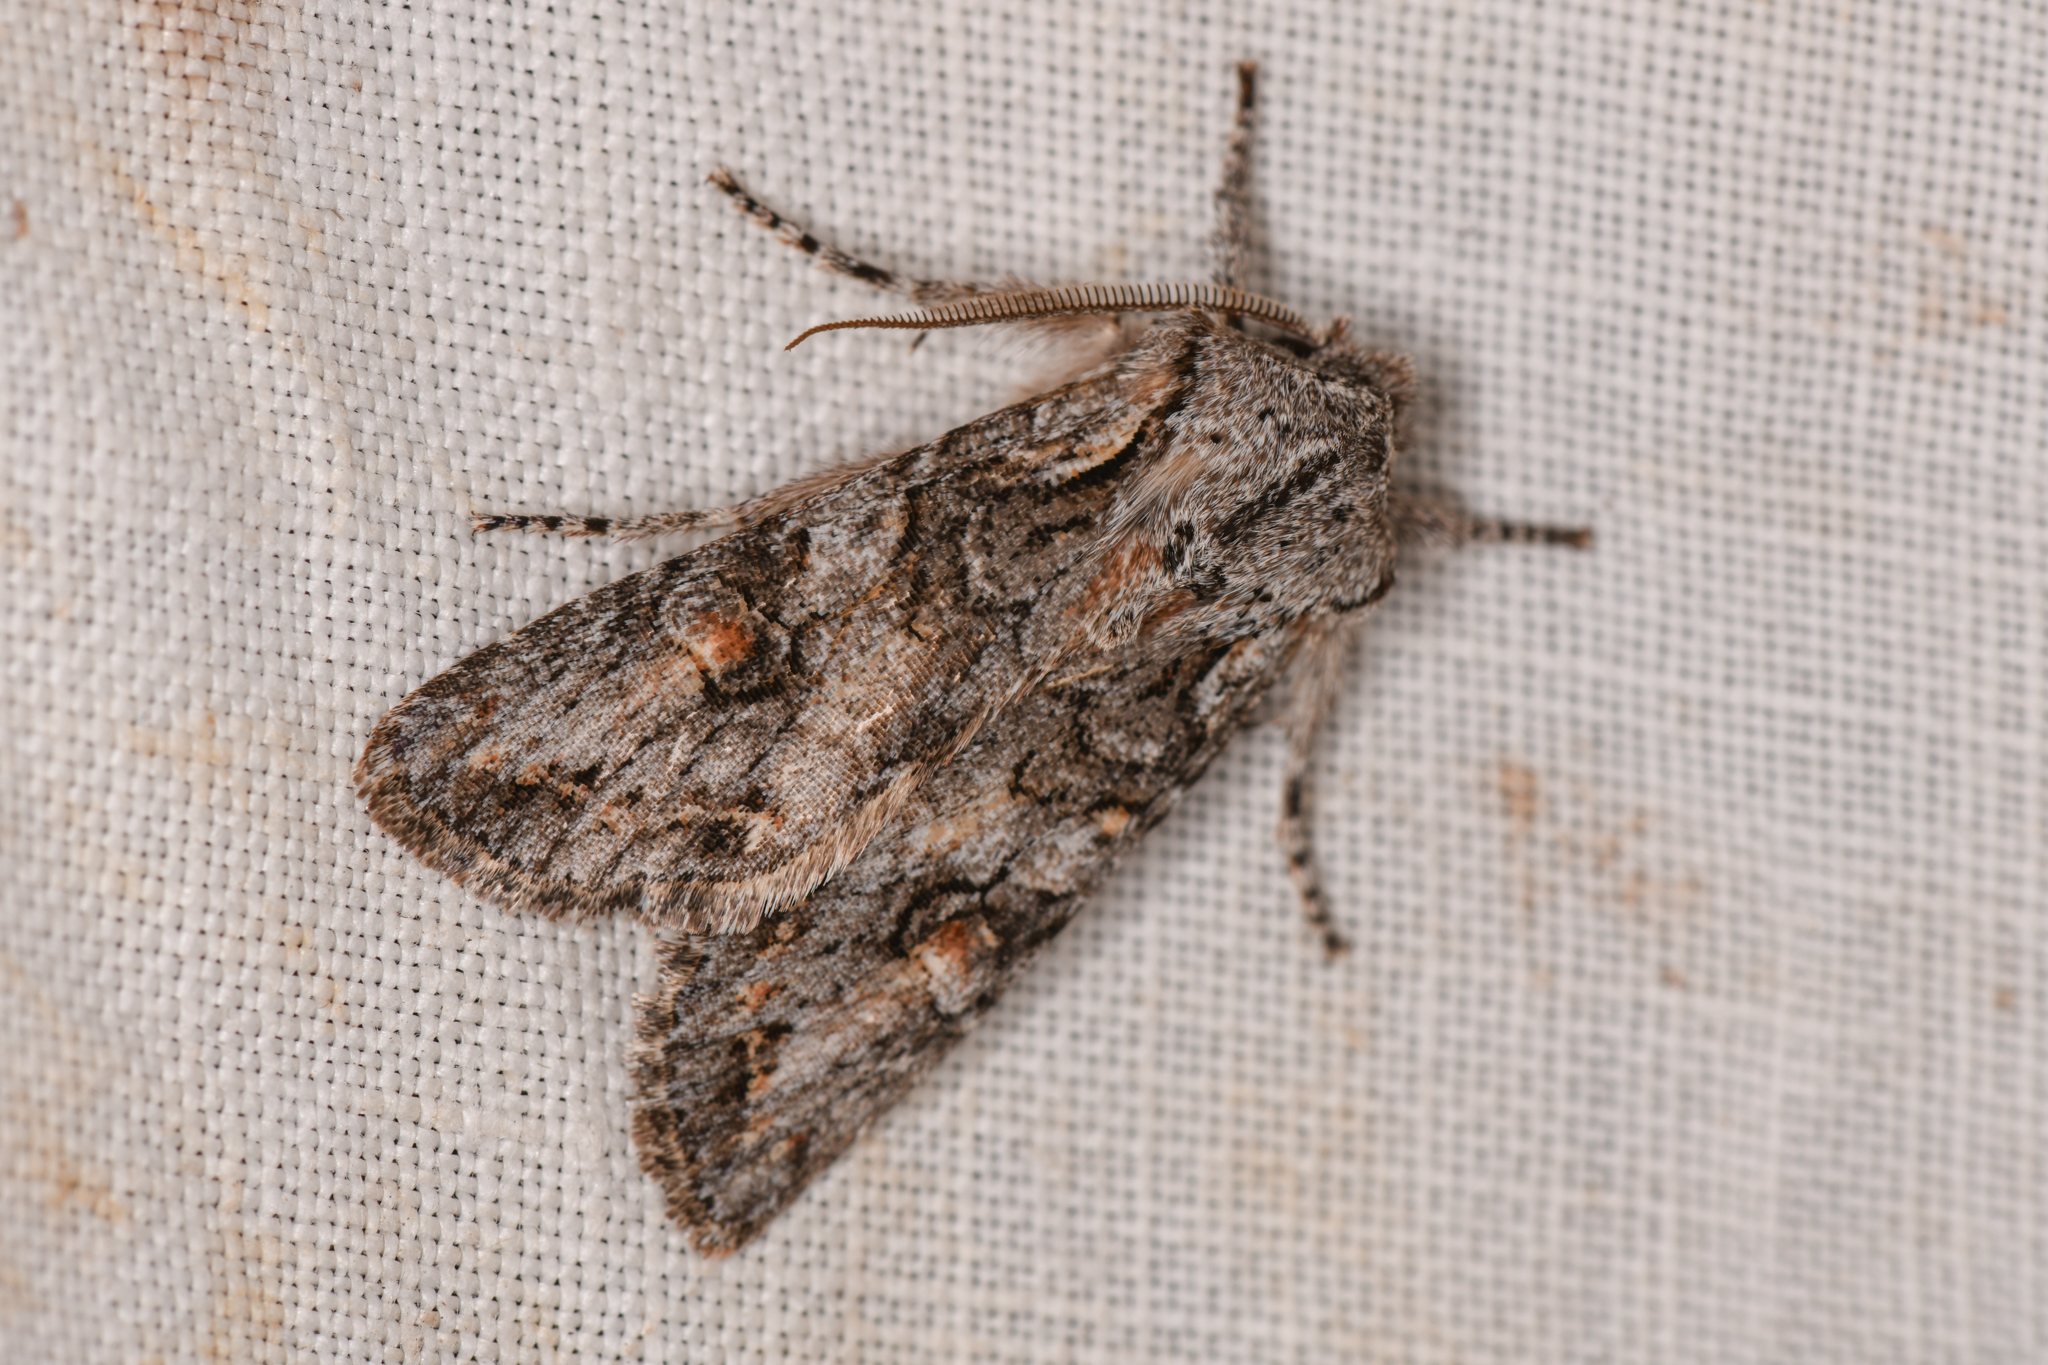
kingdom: Animalia
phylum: Arthropoda
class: Insecta
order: Lepidoptera
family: Noctuidae
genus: Egira
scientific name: Egira hiemalis
